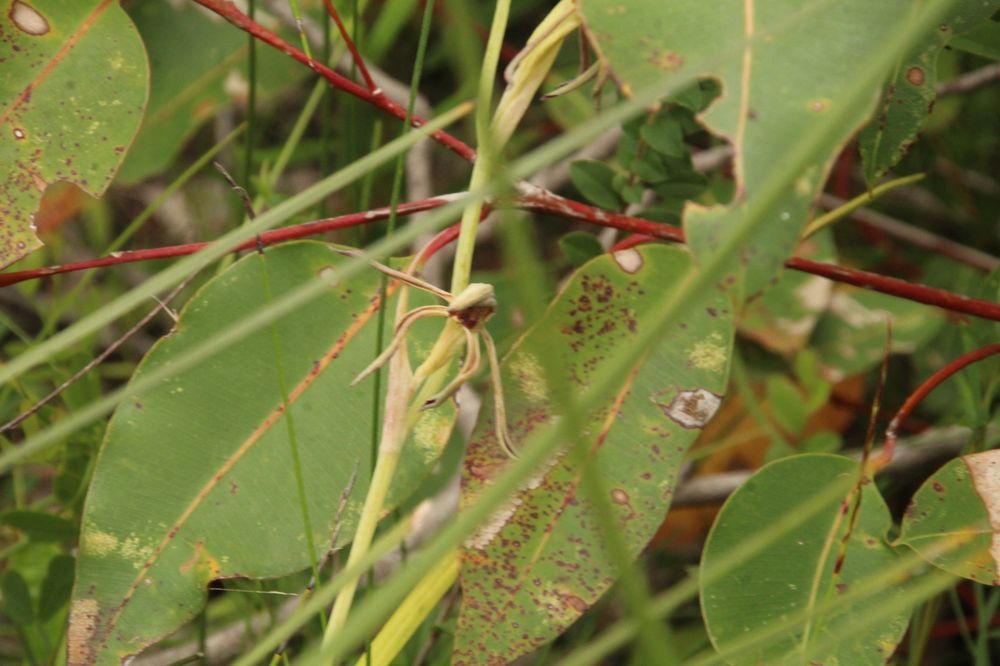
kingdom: Plantae
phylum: Tracheophyta
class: Liliopsida
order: Asparagales
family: Orchidaceae
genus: Lyperanthus
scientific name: Lyperanthus serratus
